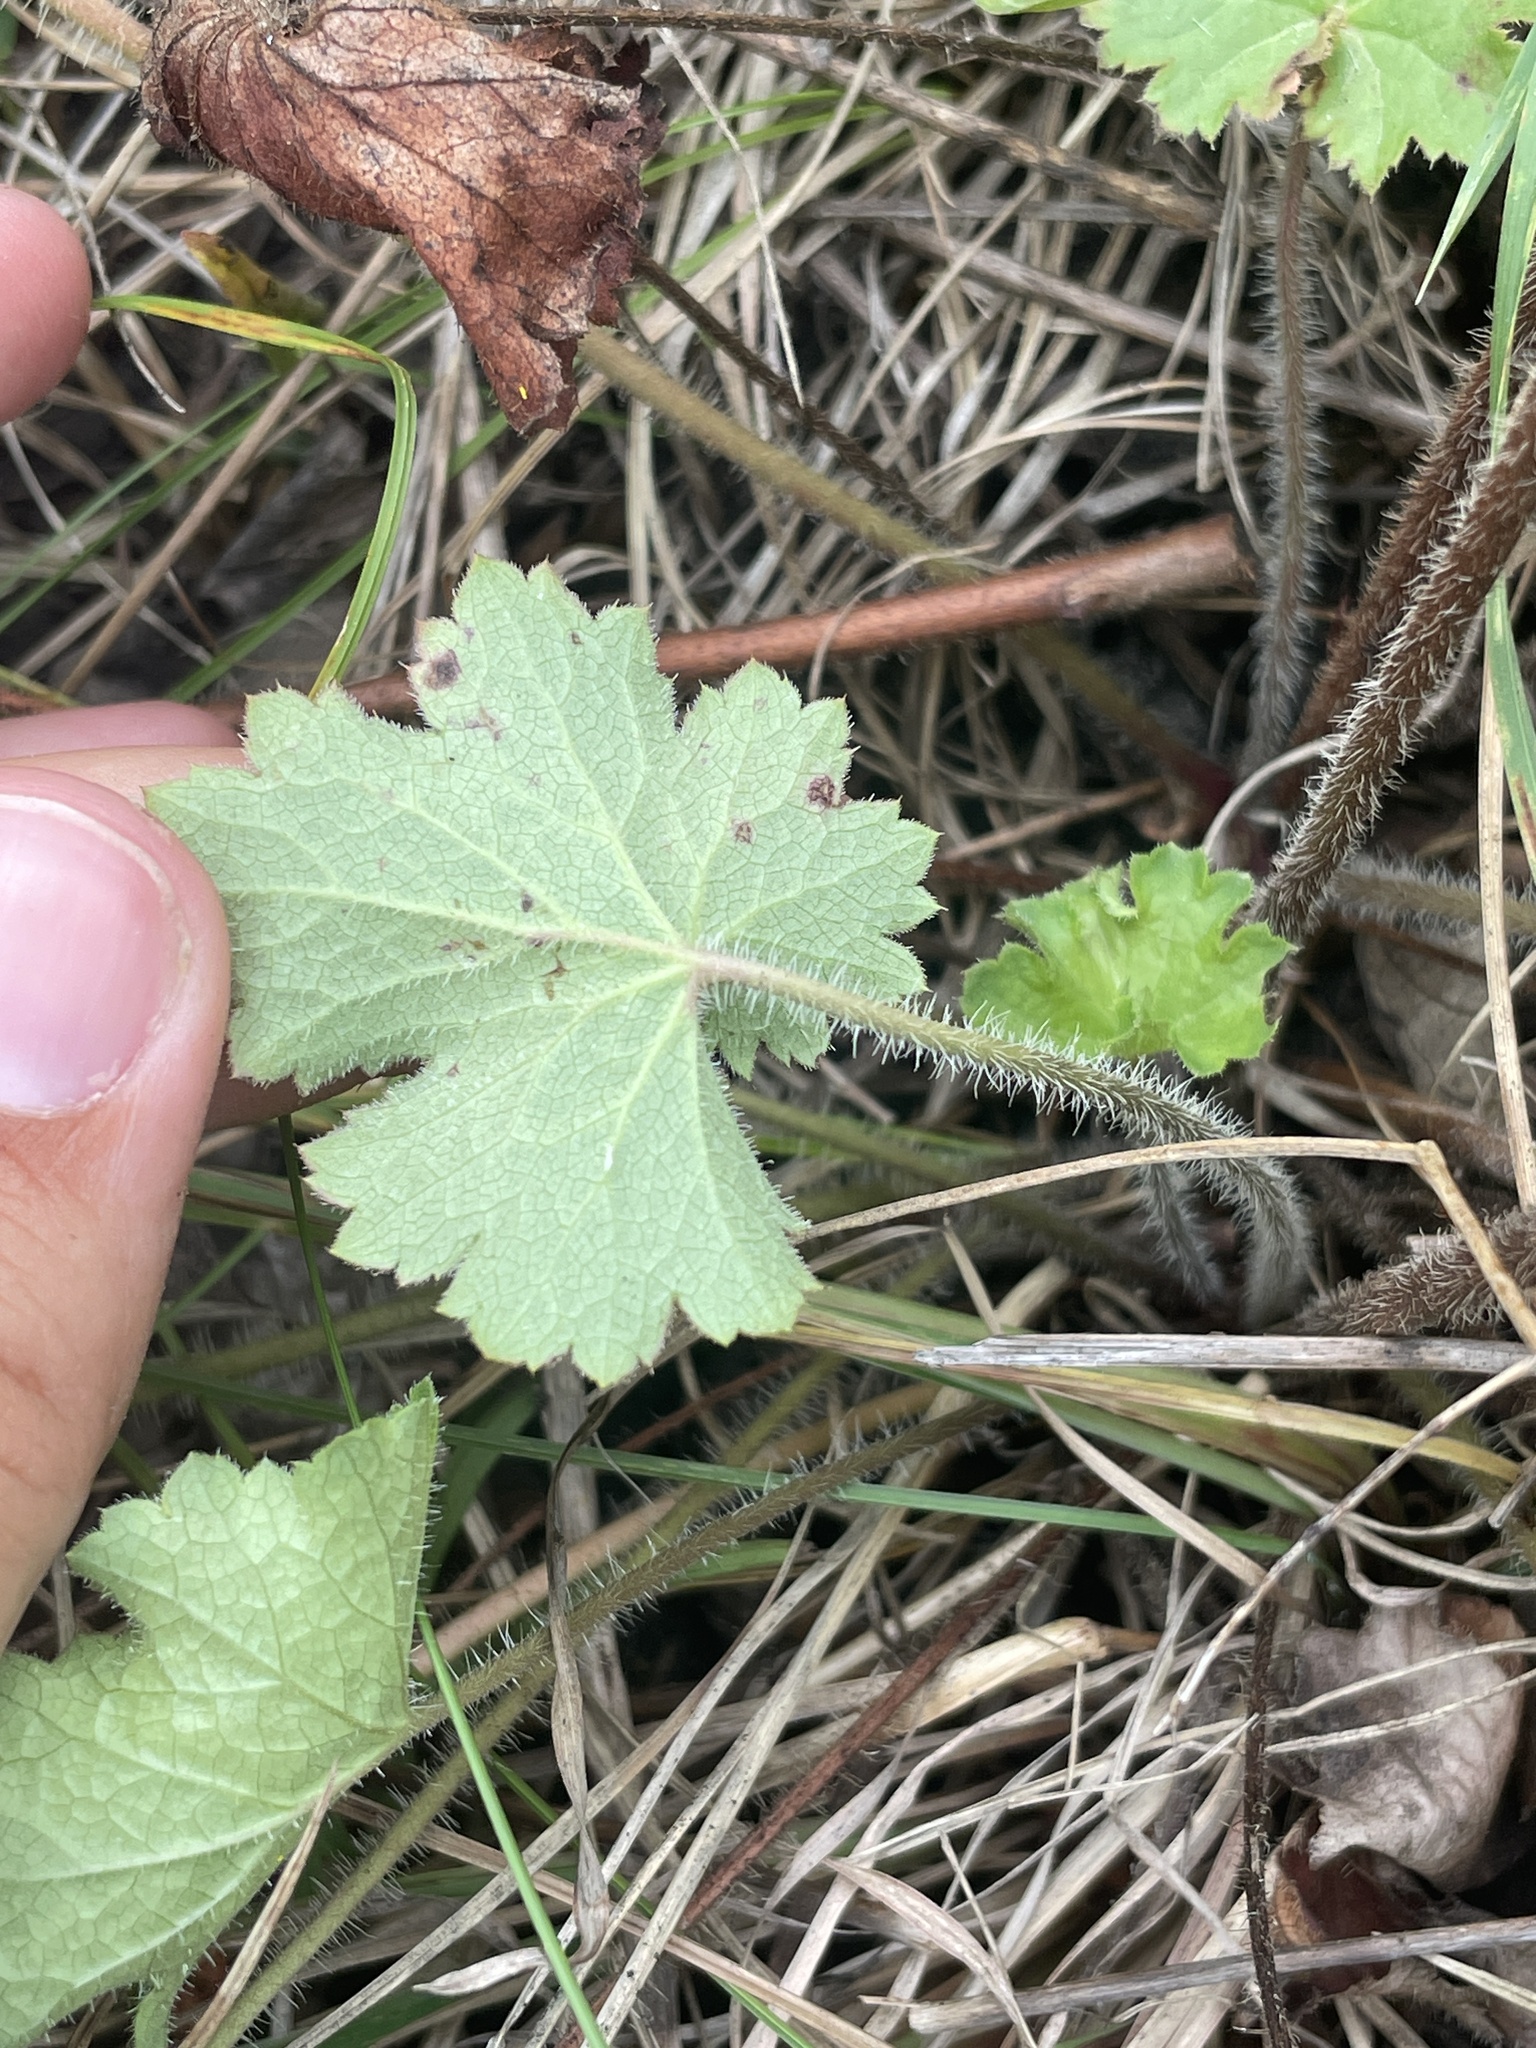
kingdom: Plantae
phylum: Tracheophyta
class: Magnoliopsida
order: Saxifragales
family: Saxifragaceae
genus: Heuchera
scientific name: Heuchera richardsonii
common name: Richardson's alumroot
